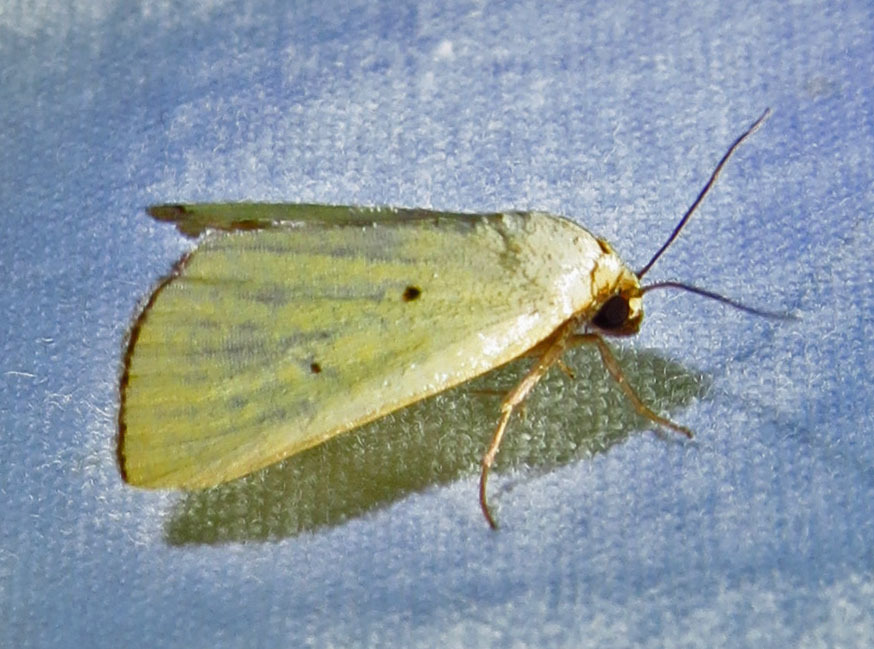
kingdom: Animalia
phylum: Arthropoda
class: Insecta
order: Lepidoptera
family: Noctuidae
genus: Marimatha
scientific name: Marimatha nigrofimbria
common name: Black-bordered lemon moth
